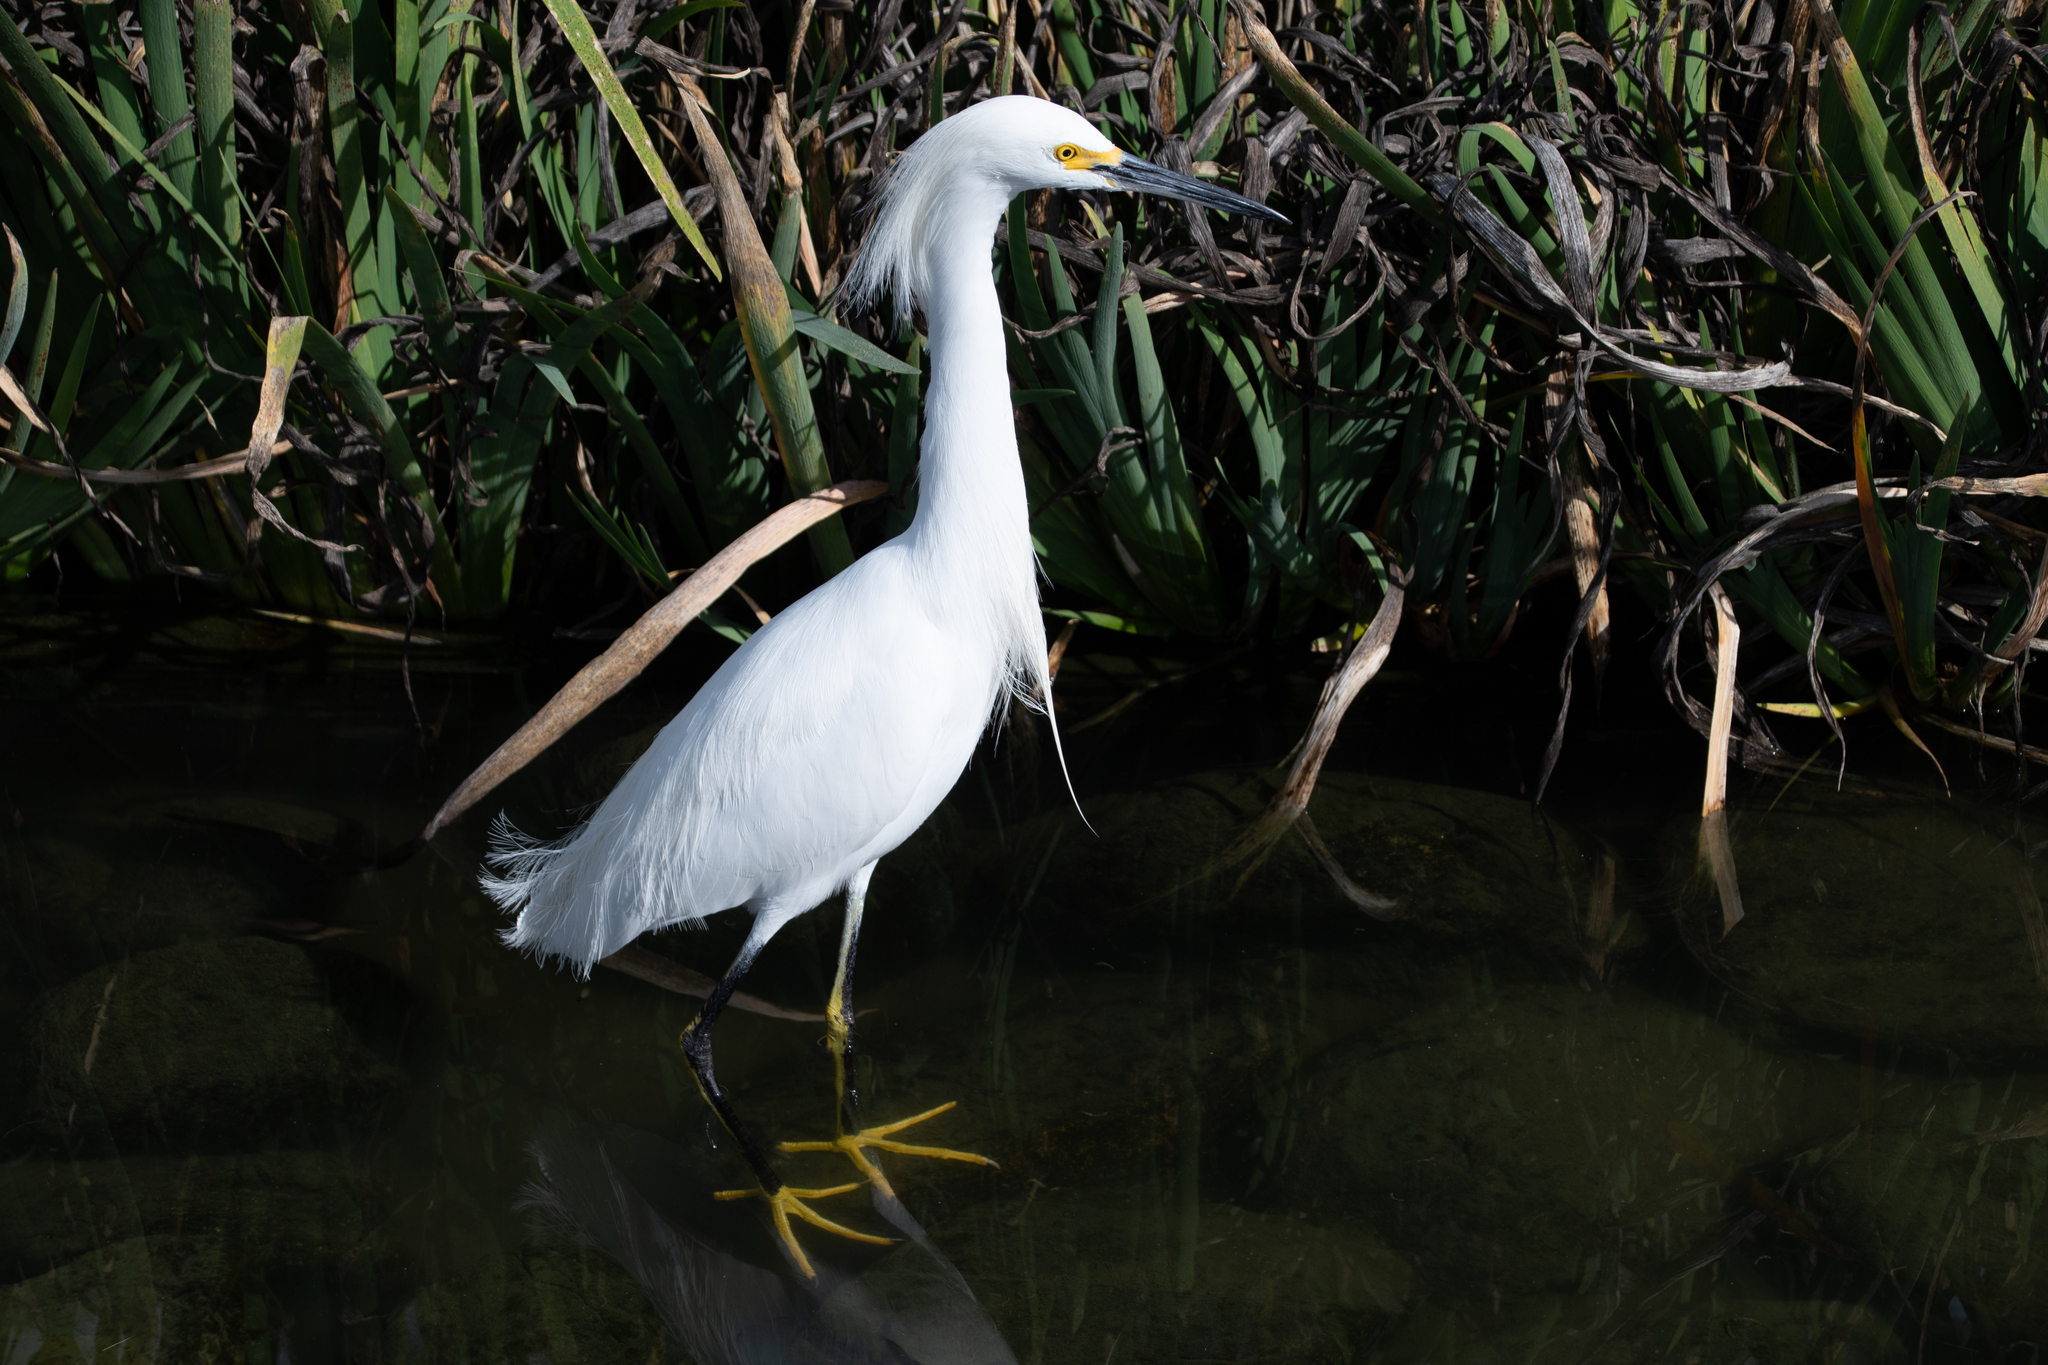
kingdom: Animalia
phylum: Chordata
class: Aves
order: Pelecaniformes
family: Ardeidae
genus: Egretta
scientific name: Egretta thula
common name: Snowy egret
